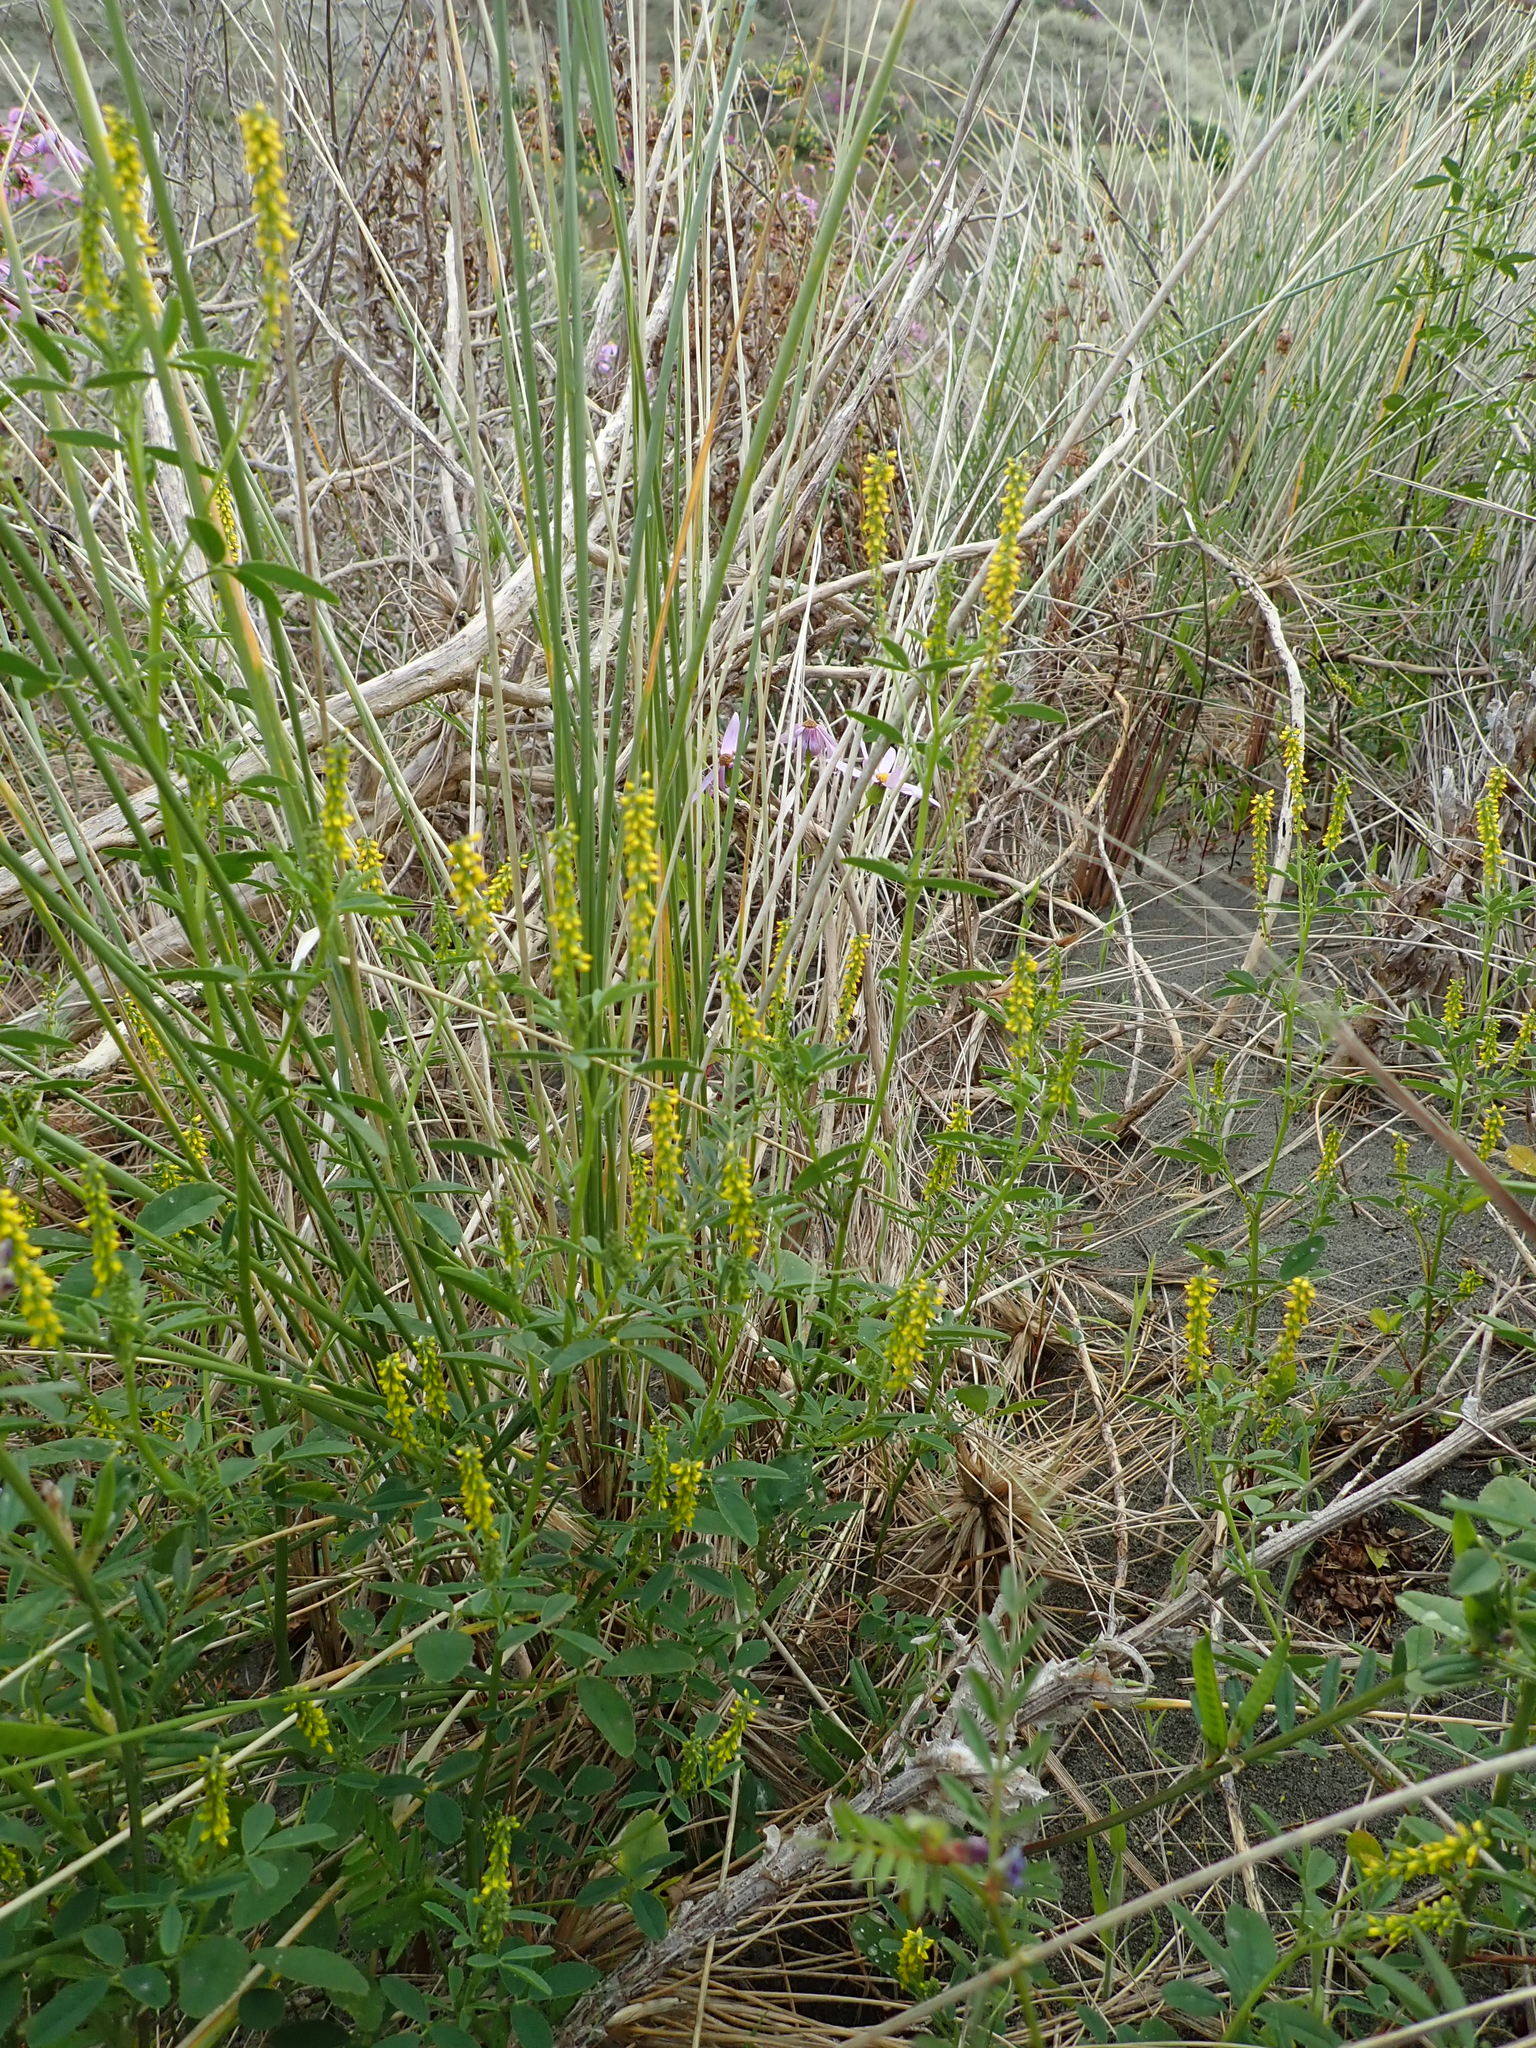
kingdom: Plantae
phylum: Tracheophyta
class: Magnoliopsida
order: Fabales
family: Fabaceae
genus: Melilotus
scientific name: Melilotus indicus
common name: Small melilot
